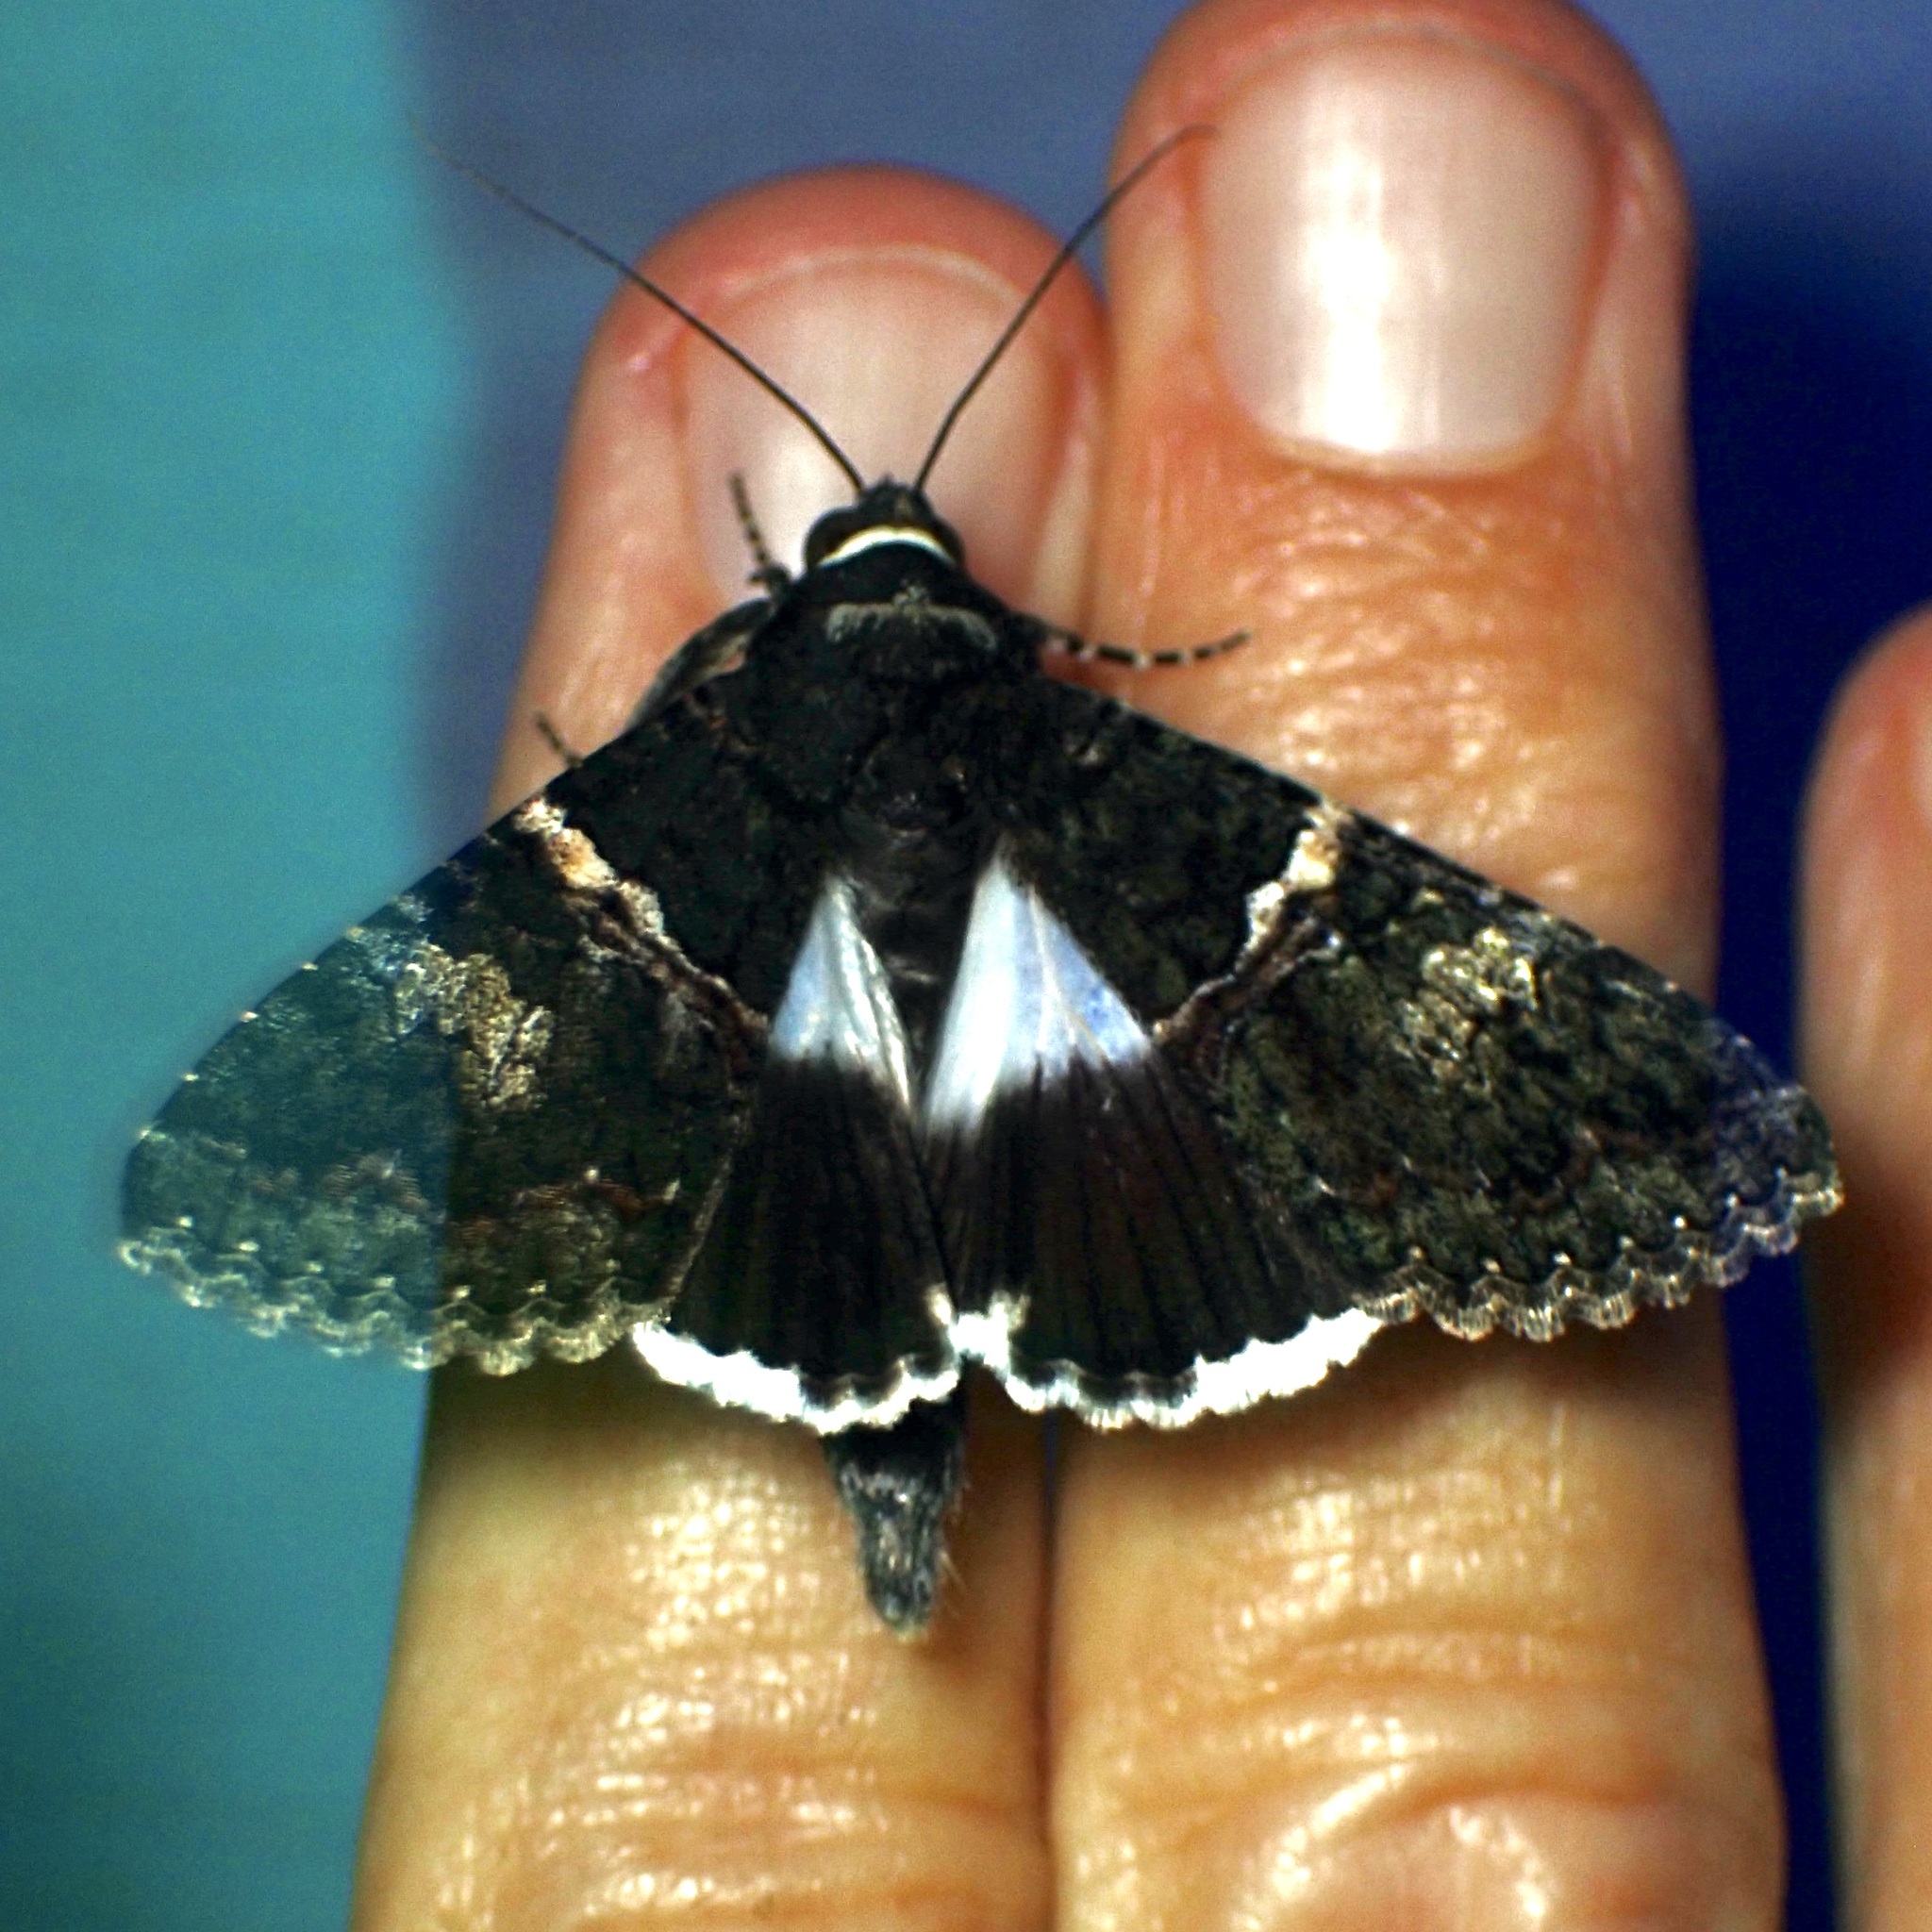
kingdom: Animalia
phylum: Arthropoda
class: Insecta
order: Lepidoptera
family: Erebidae
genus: Melipotis
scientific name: Melipotis punctifinis
